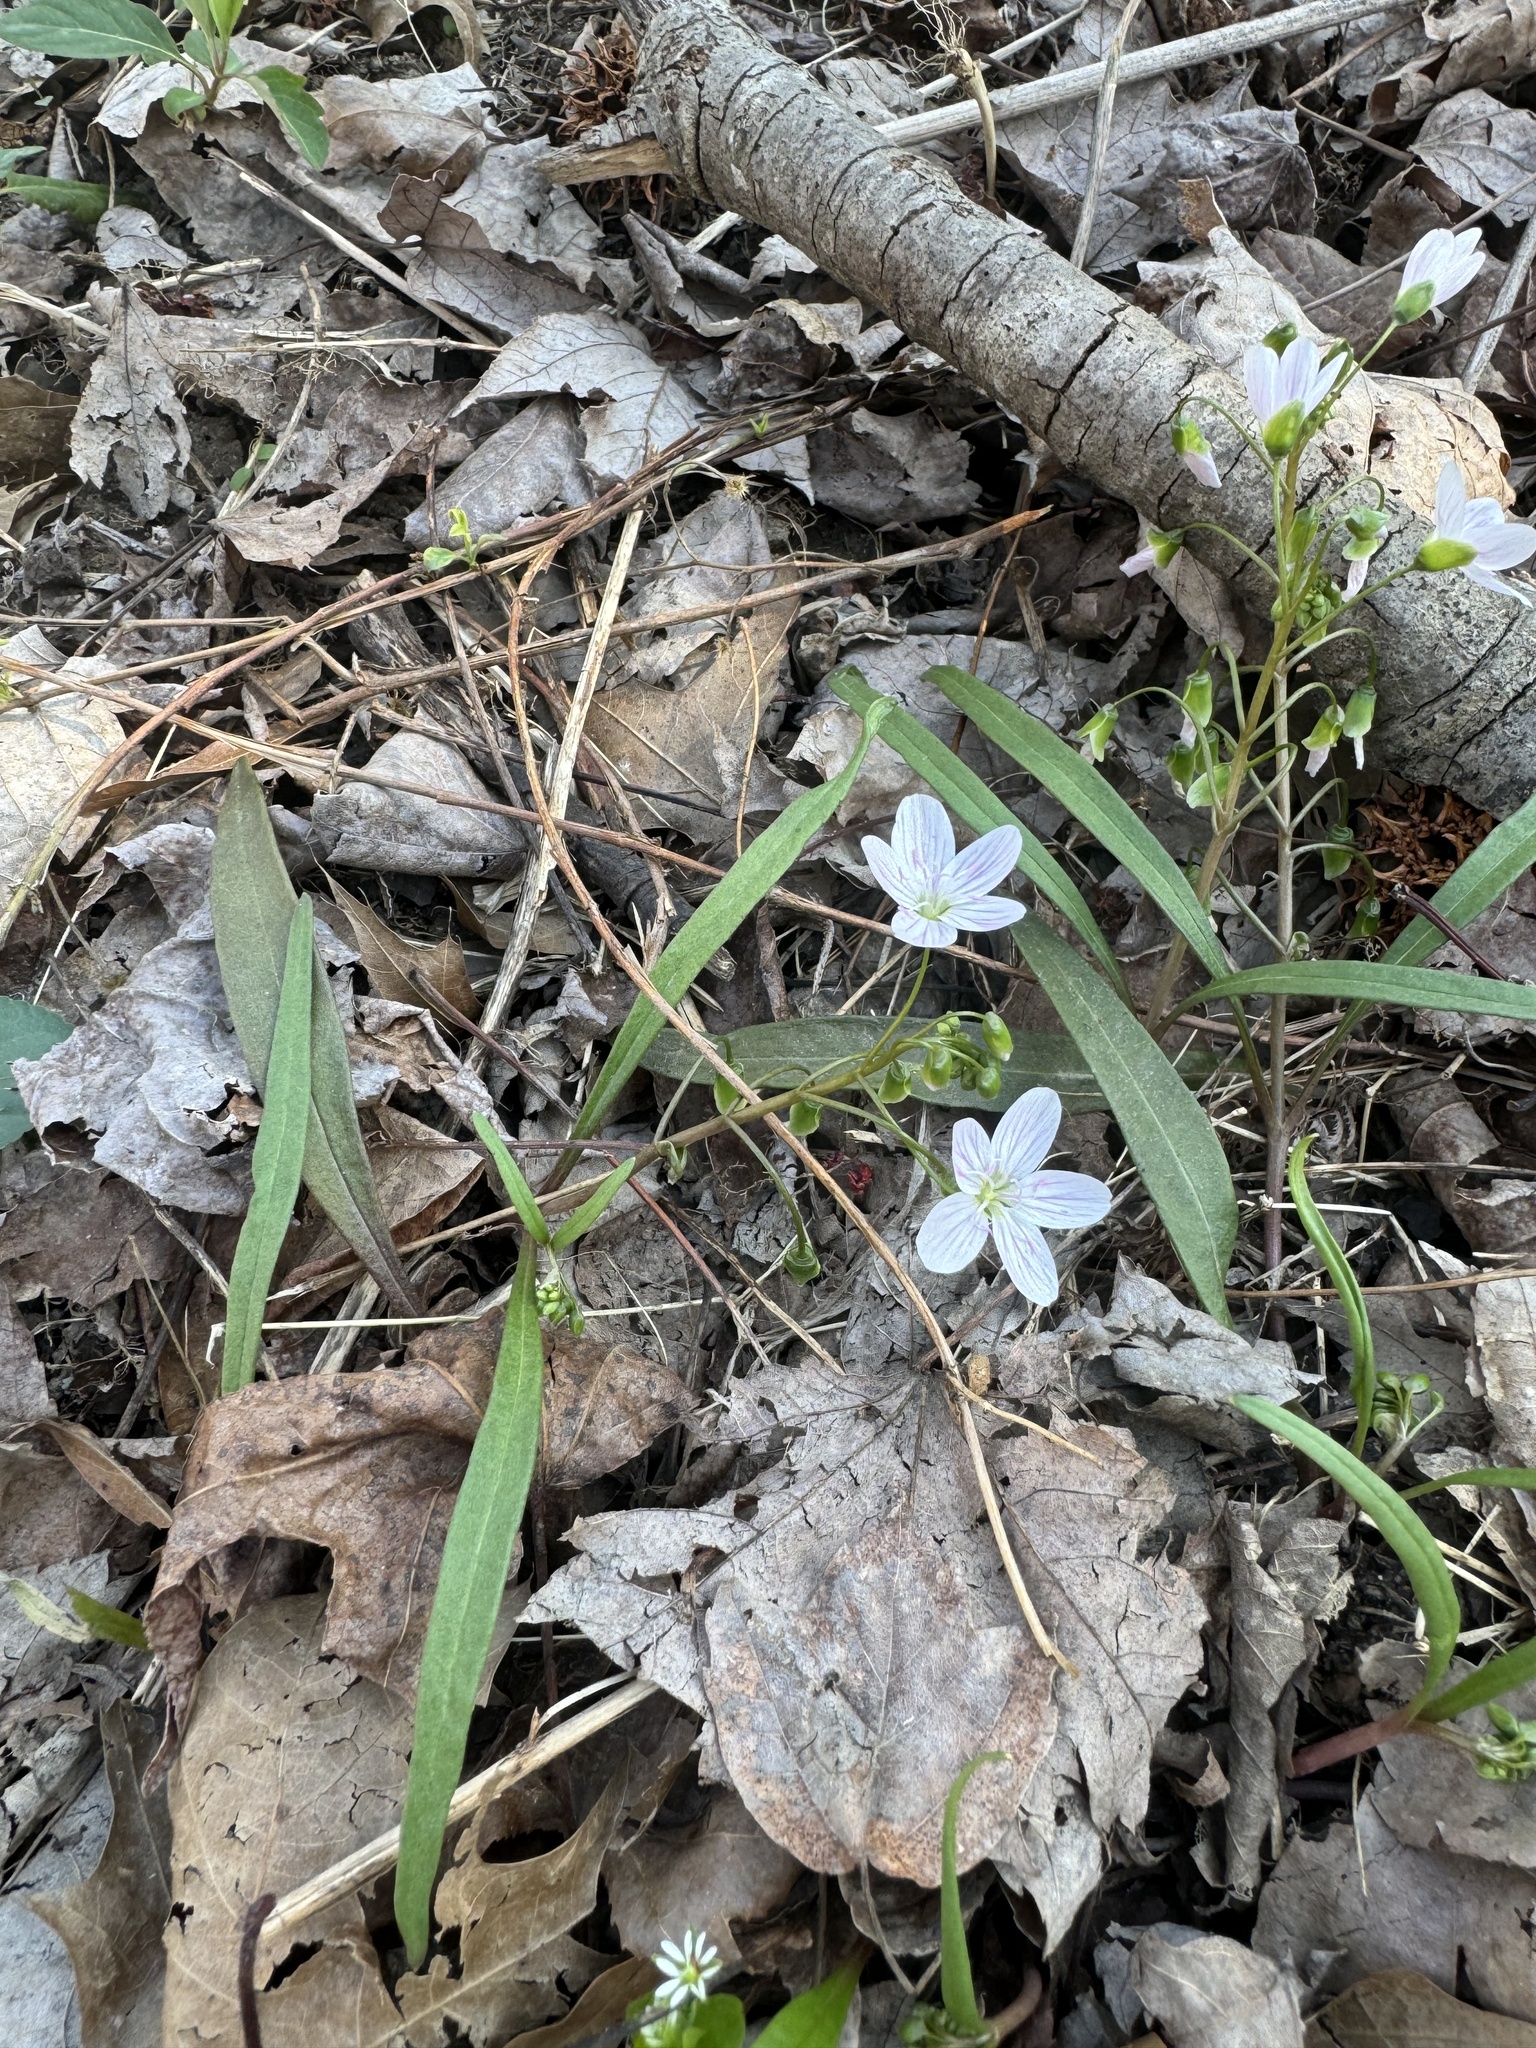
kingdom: Plantae
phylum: Tracheophyta
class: Magnoliopsida
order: Caryophyllales
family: Montiaceae
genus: Claytonia
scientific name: Claytonia virginica
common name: Virginia springbeauty
